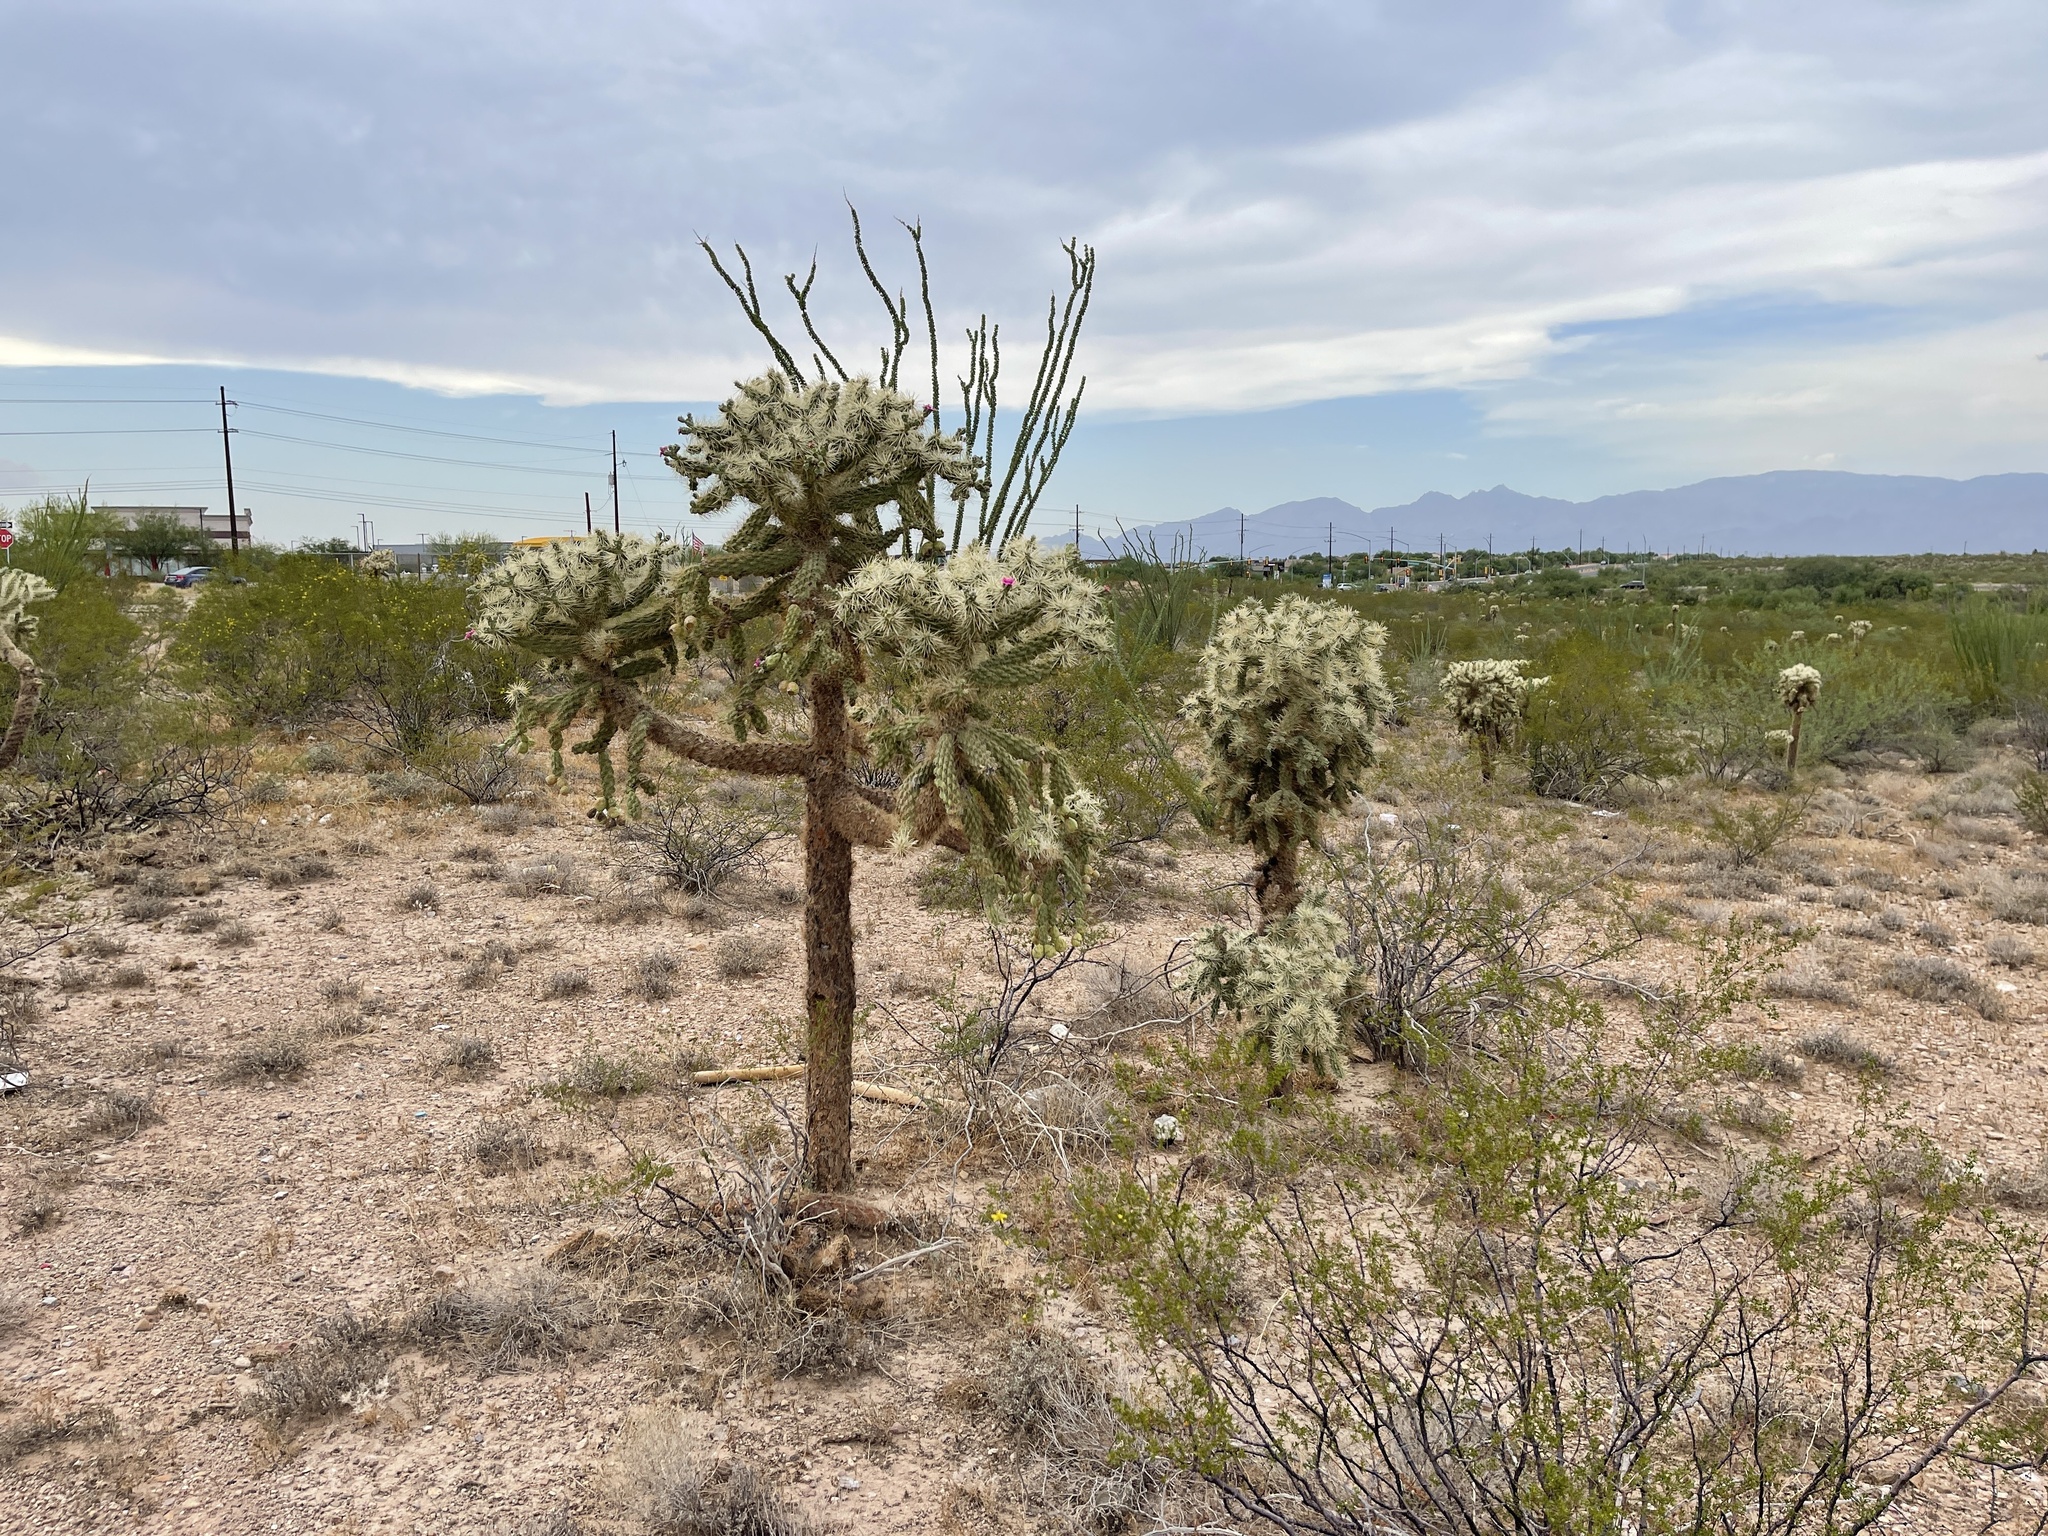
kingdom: Plantae
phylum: Tracheophyta
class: Magnoliopsida
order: Caryophyllales
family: Cactaceae
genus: Cylindropuntia
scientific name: Cylindropuntia fulgida
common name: Jumping cholla
